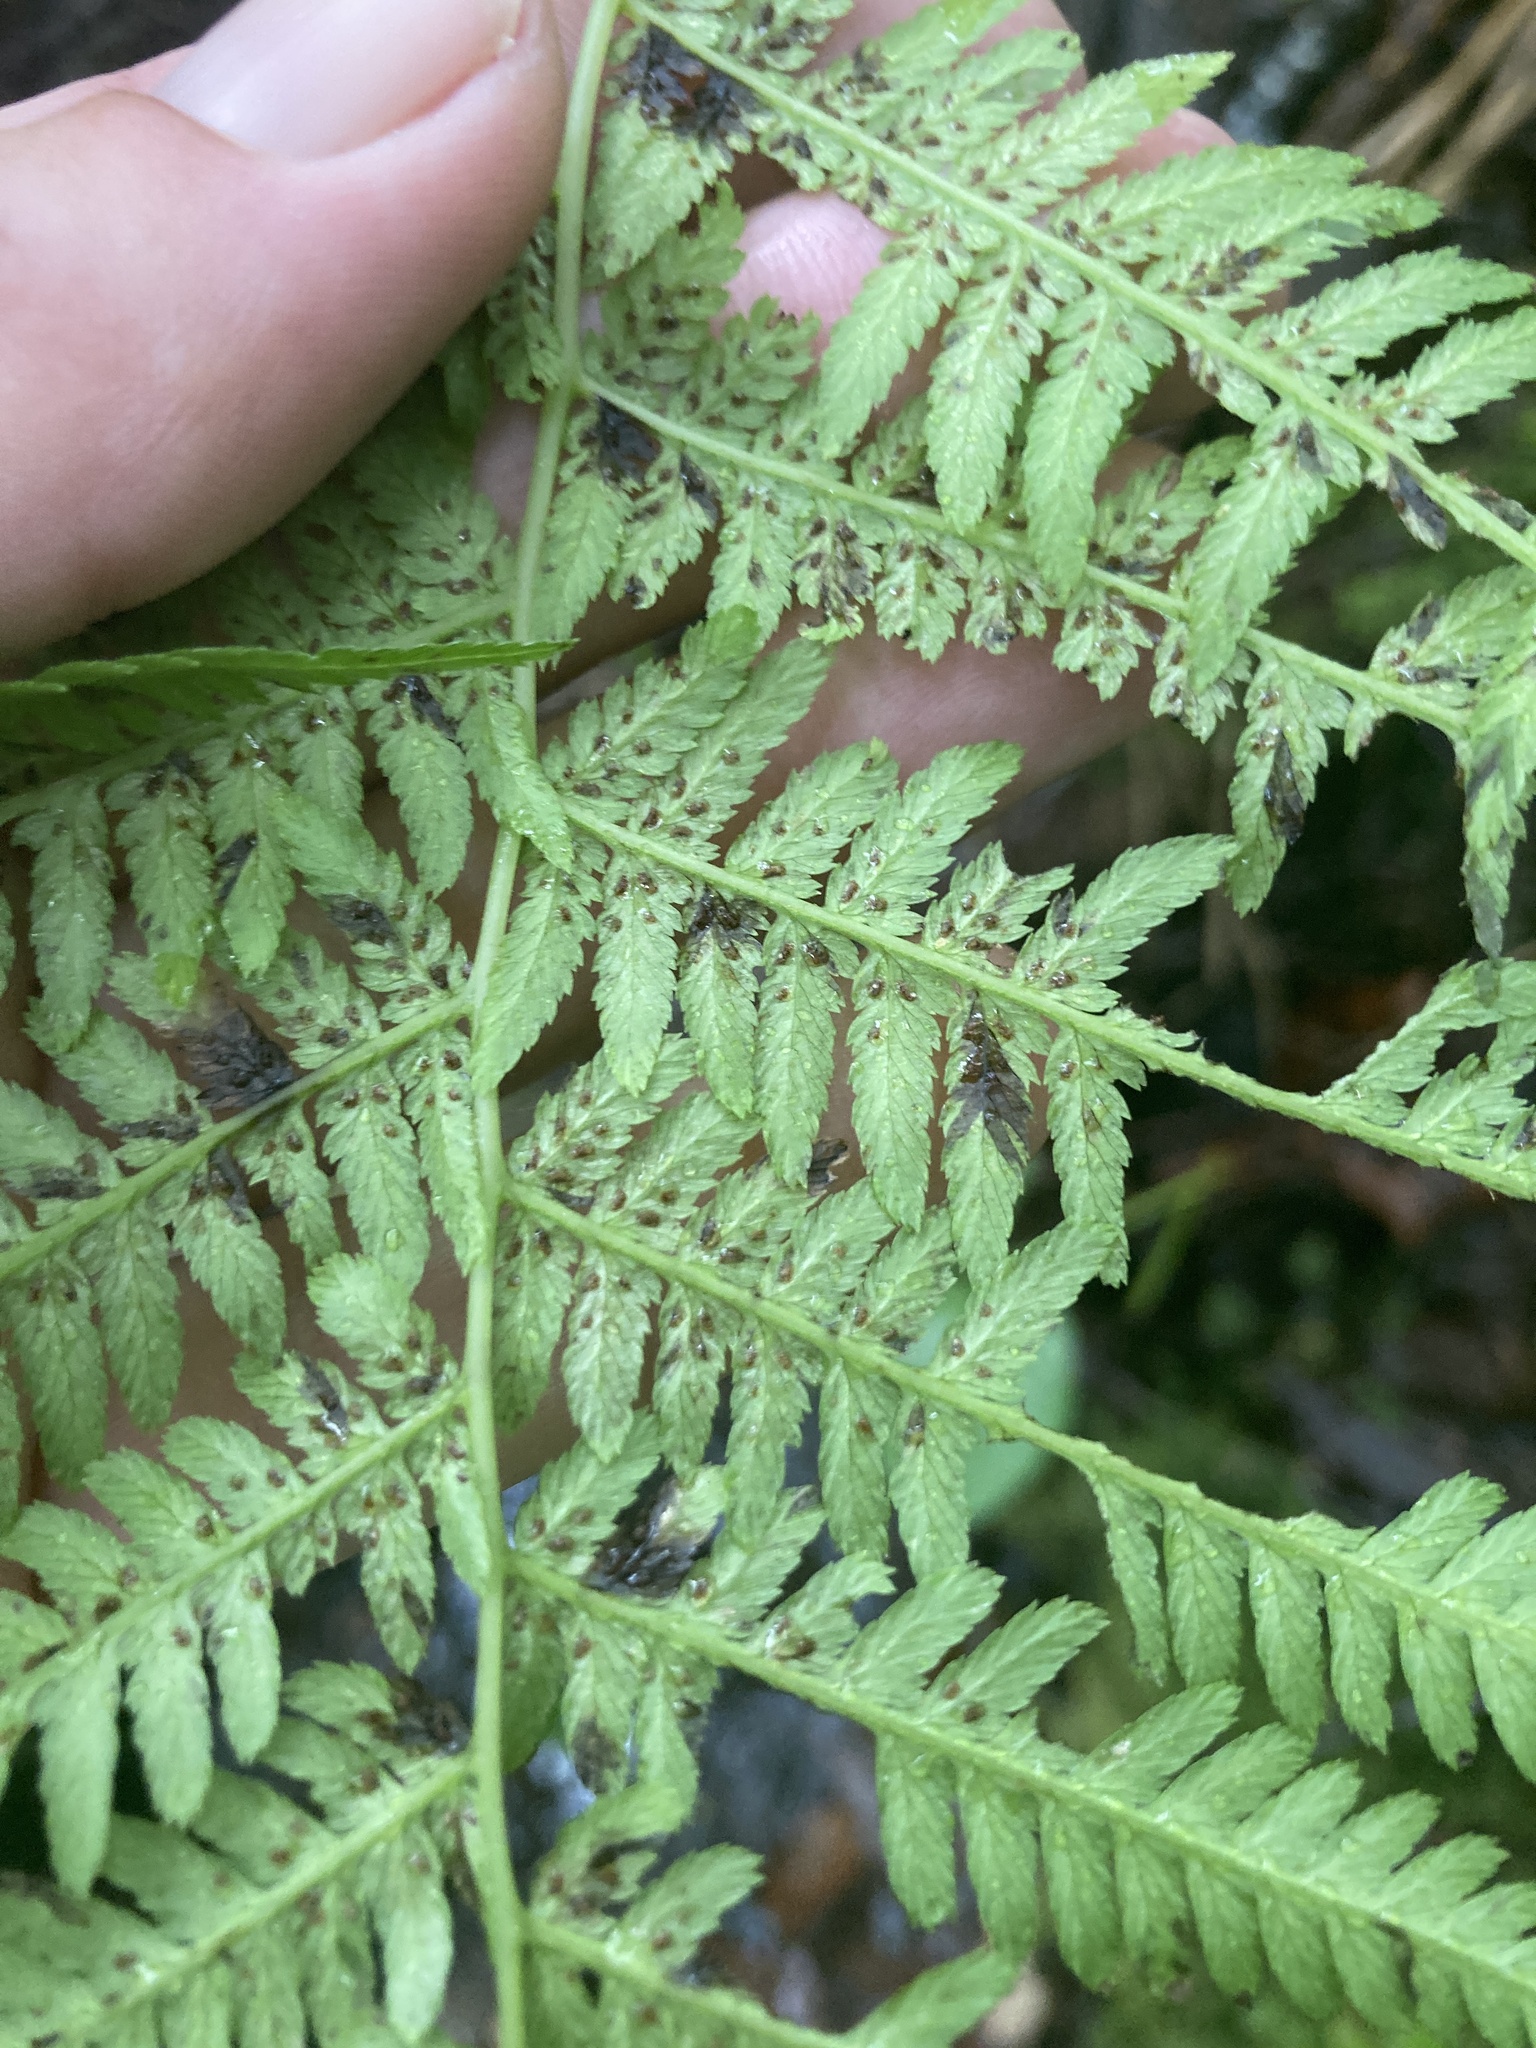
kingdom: Plantae
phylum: Tracheophyta
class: Polypodiopsida
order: Polypodiales
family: Athyriaceae
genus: Athyrium
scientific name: Athyrium angustum
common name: Northern lady fern
